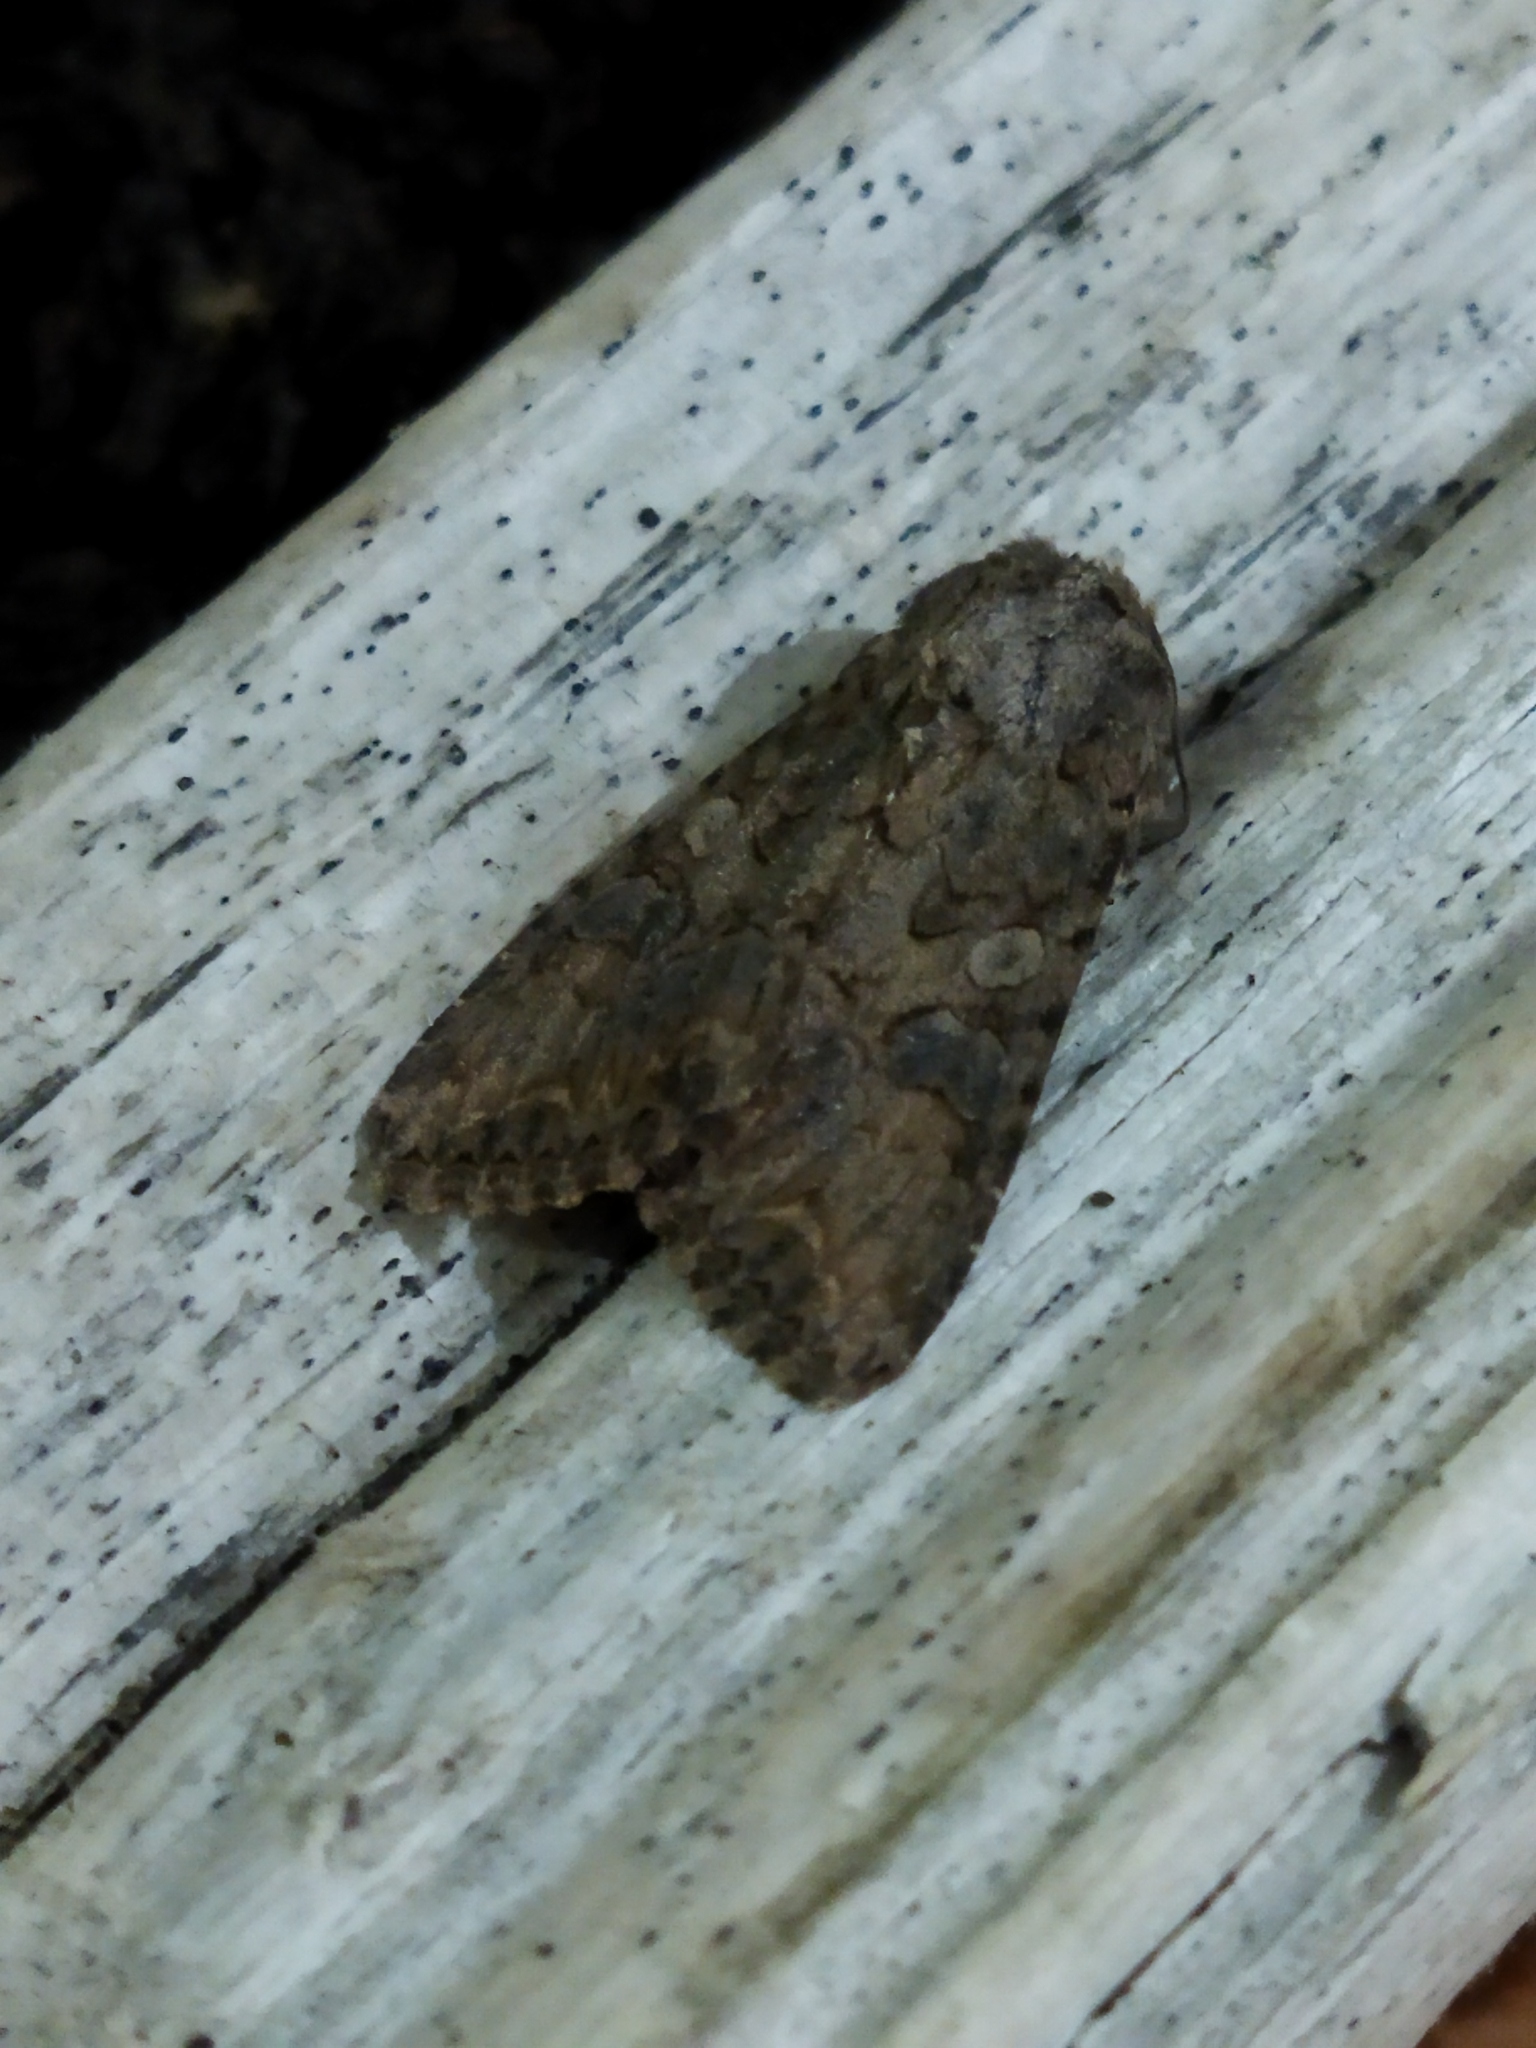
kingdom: Animalia
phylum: Arthropoda
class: Insecta
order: Lepidoptera
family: Noctuidae
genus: Anarta
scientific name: Anarta trifolii
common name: Clover cutworm moth
